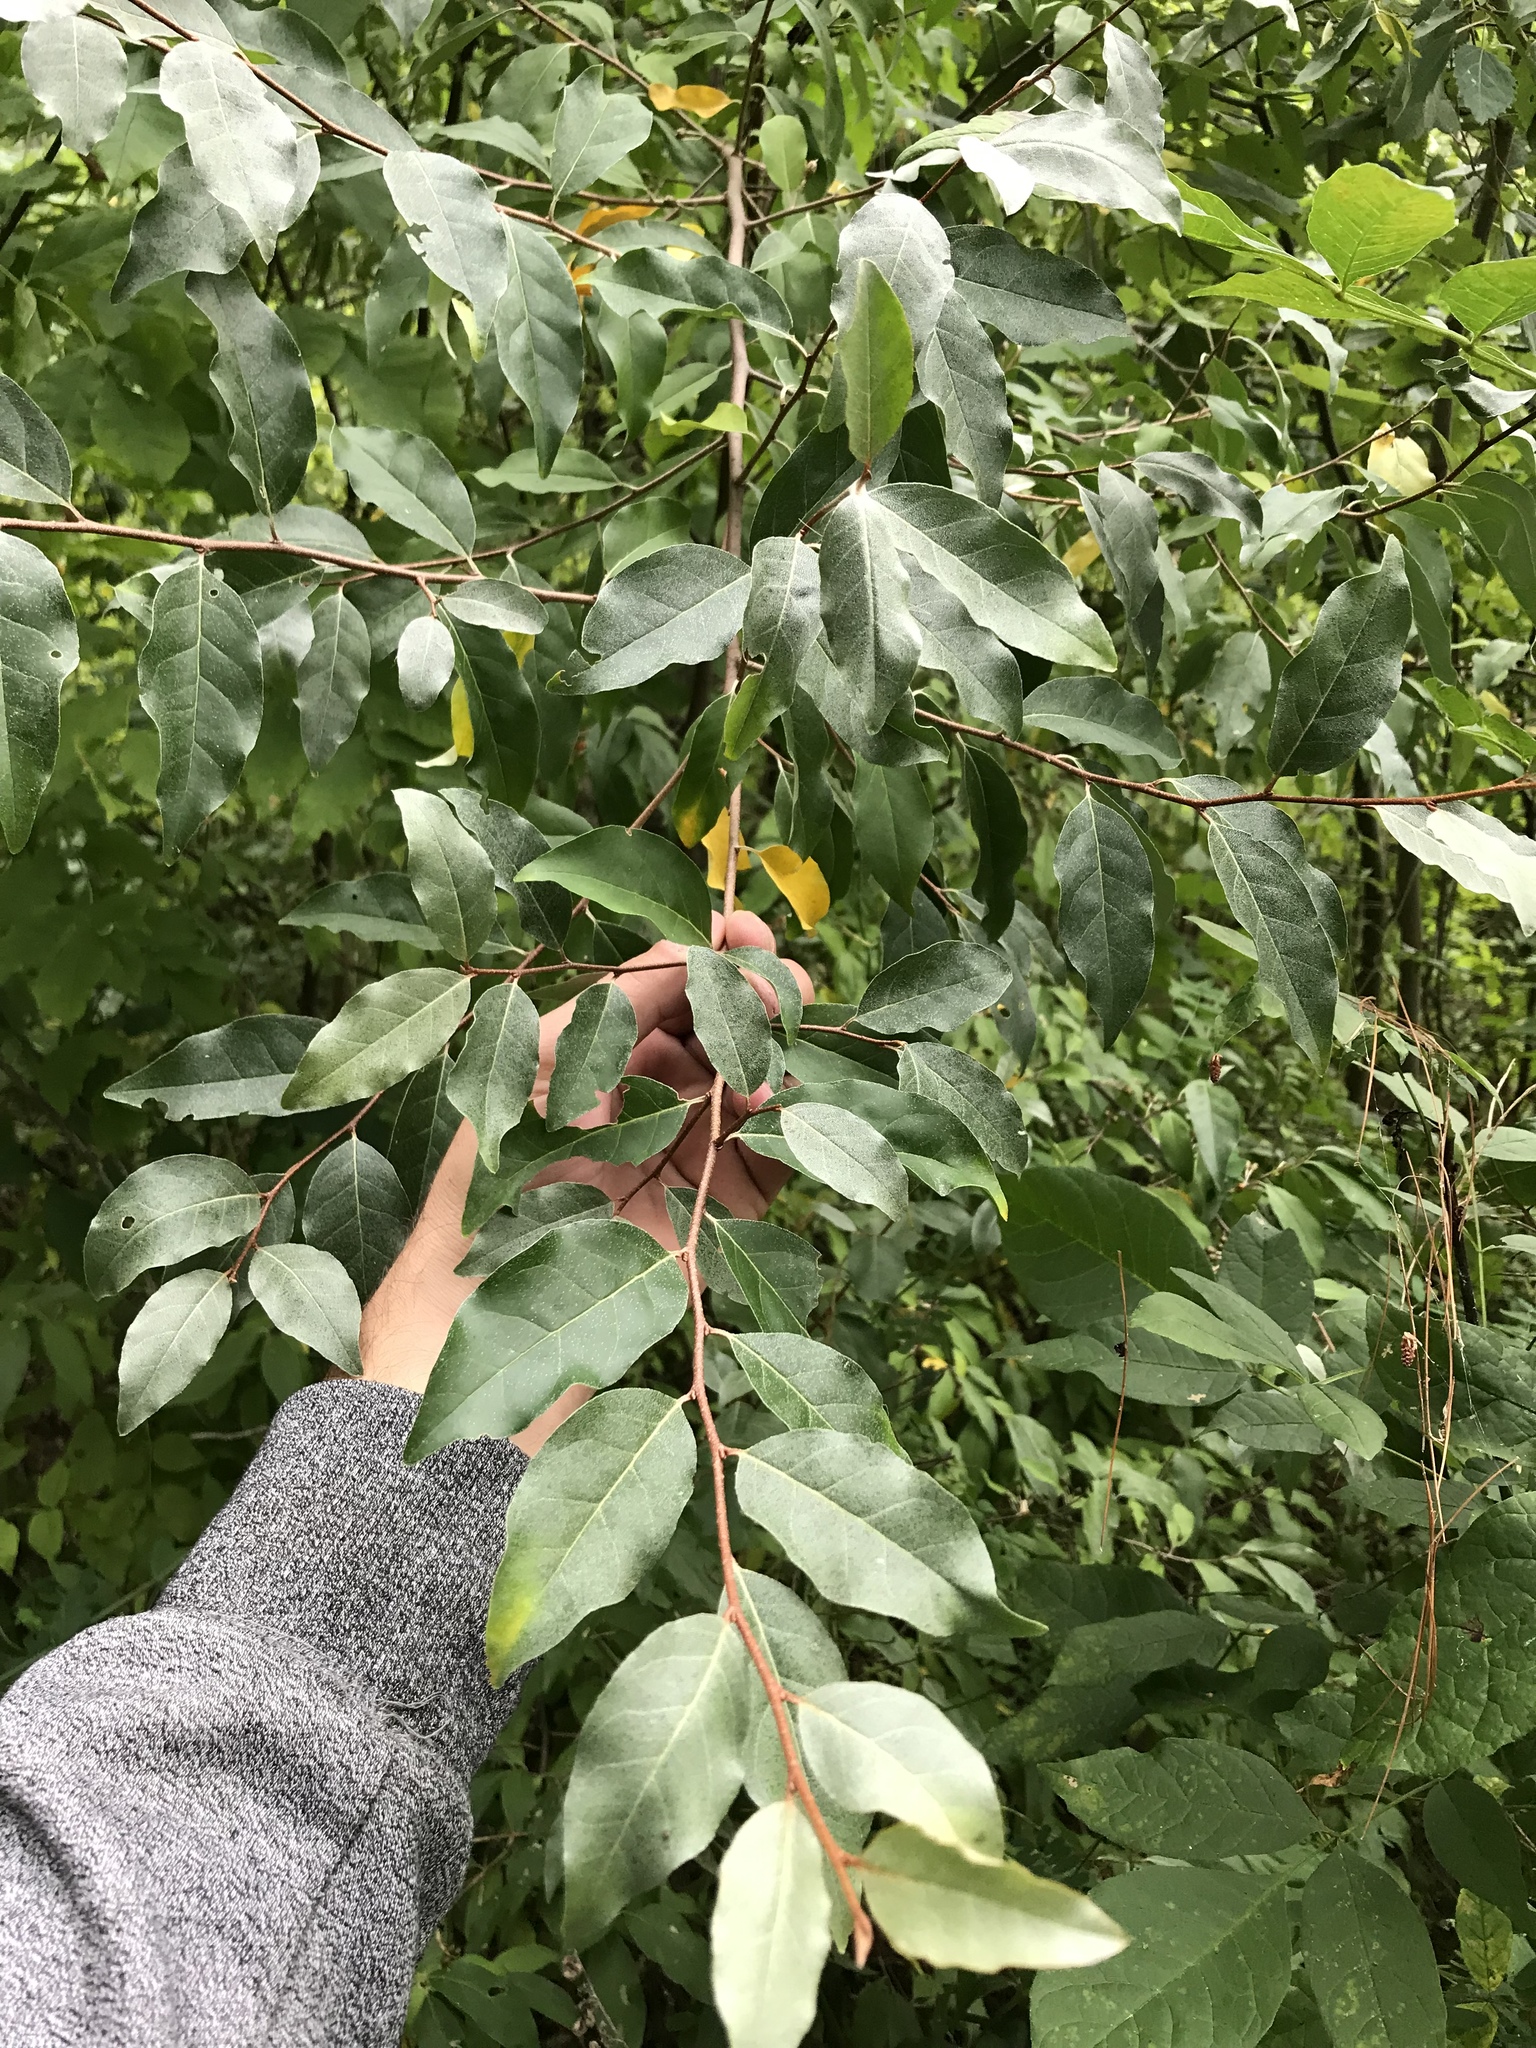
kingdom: Plantae
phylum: Tracheophyta
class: Magnoliopsida
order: Rosales
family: Elaeagnaceae
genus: Elaeagnus
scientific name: Elaeagnus umbellata
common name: Autumn olive
